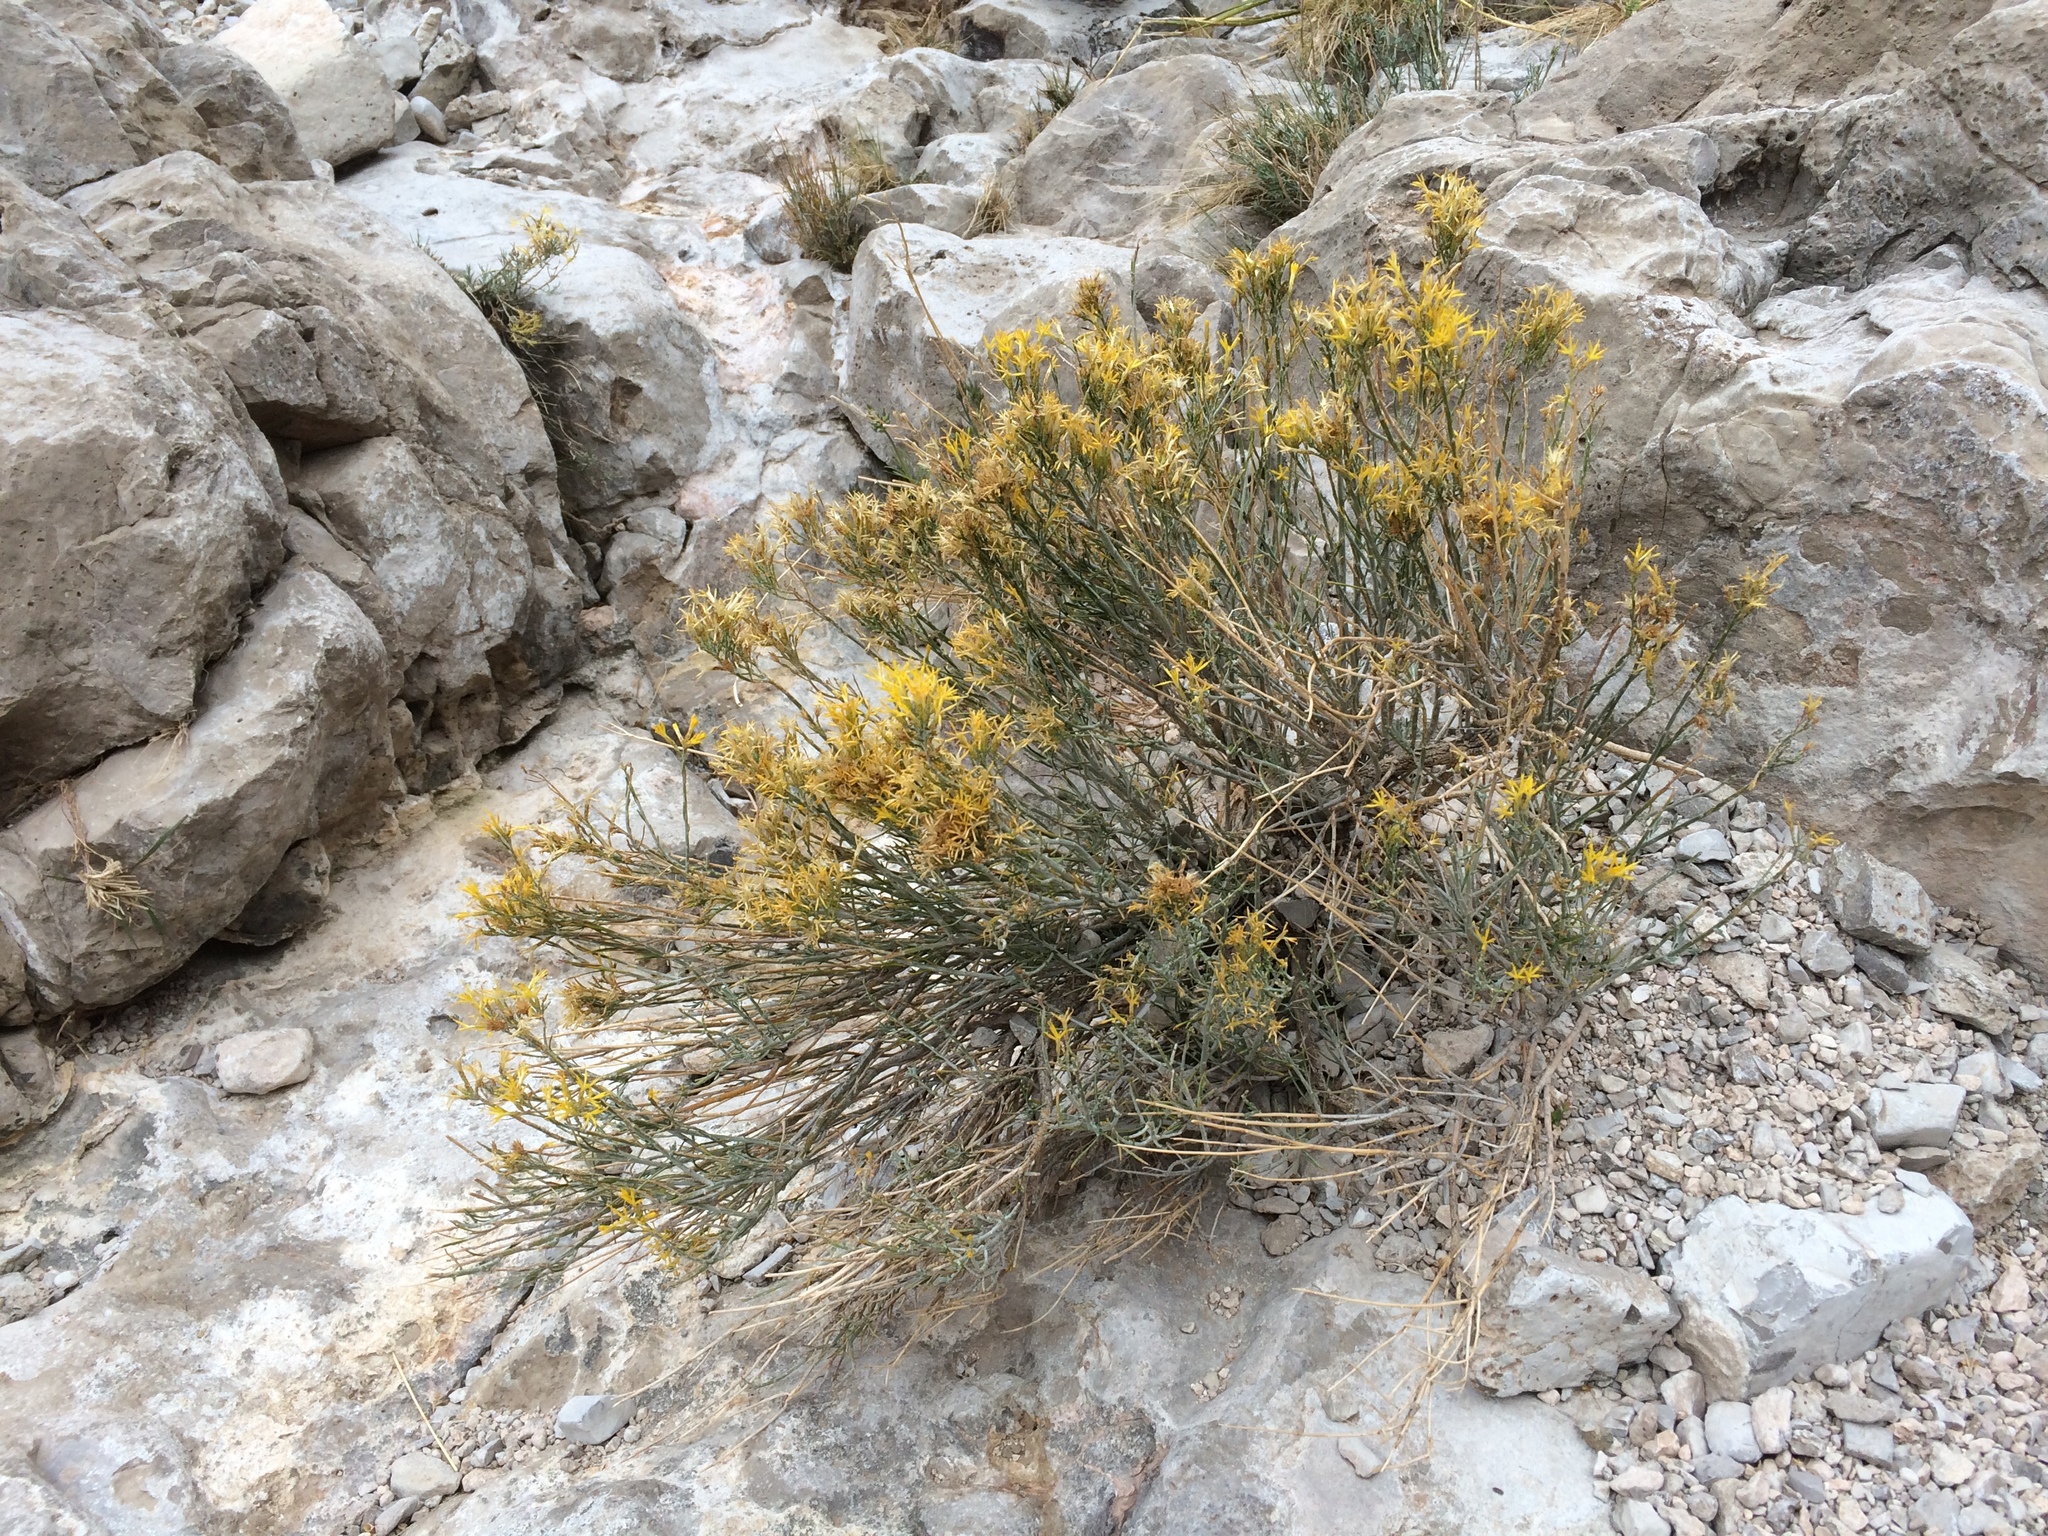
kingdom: Plantae
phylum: Tracheophyta
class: Magnoliopsida
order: Asterales
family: Asteraceae
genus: Ericameria
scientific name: Ericameria nauseosa
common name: Rubber rabbitbrush
